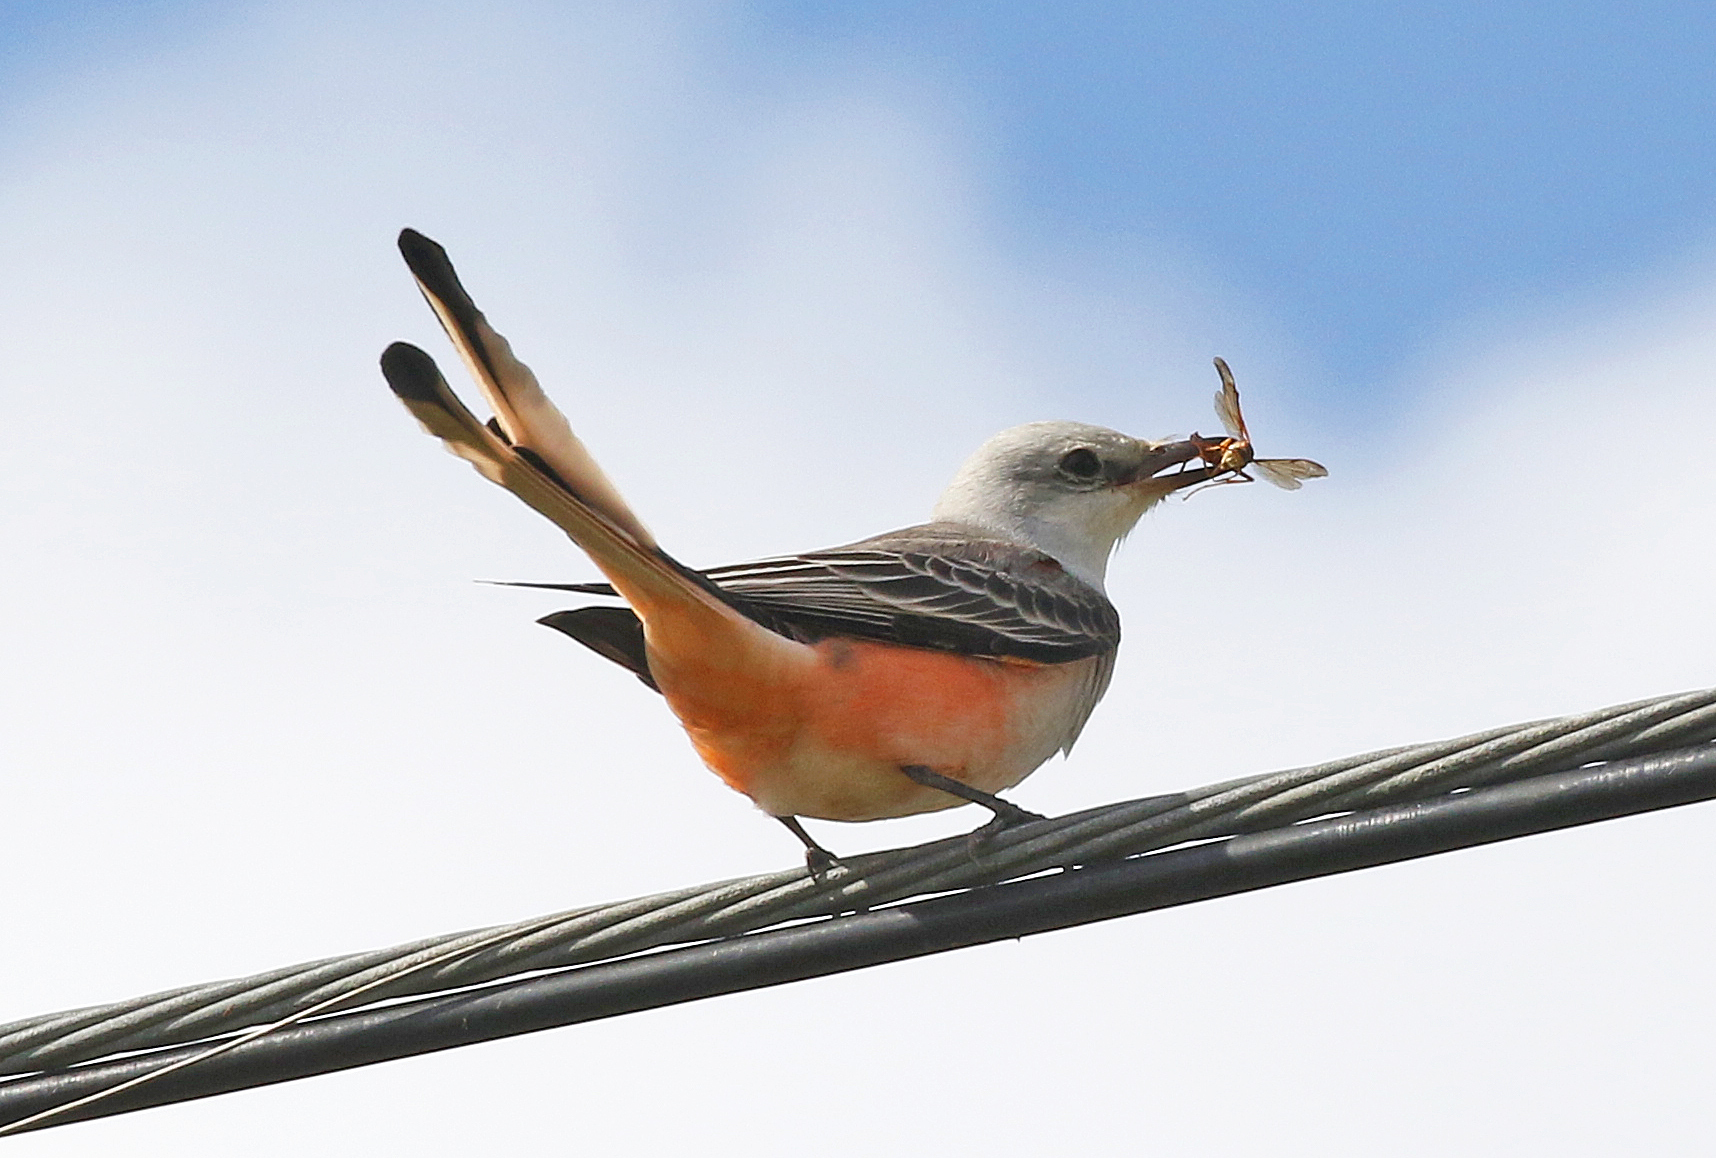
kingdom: Animalia
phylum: Chordata
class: Aves
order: Passeriformes
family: Tyrannidae
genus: Tyrannus
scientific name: Tyrannus forficatus
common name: Scissor-tailed flycatcher
